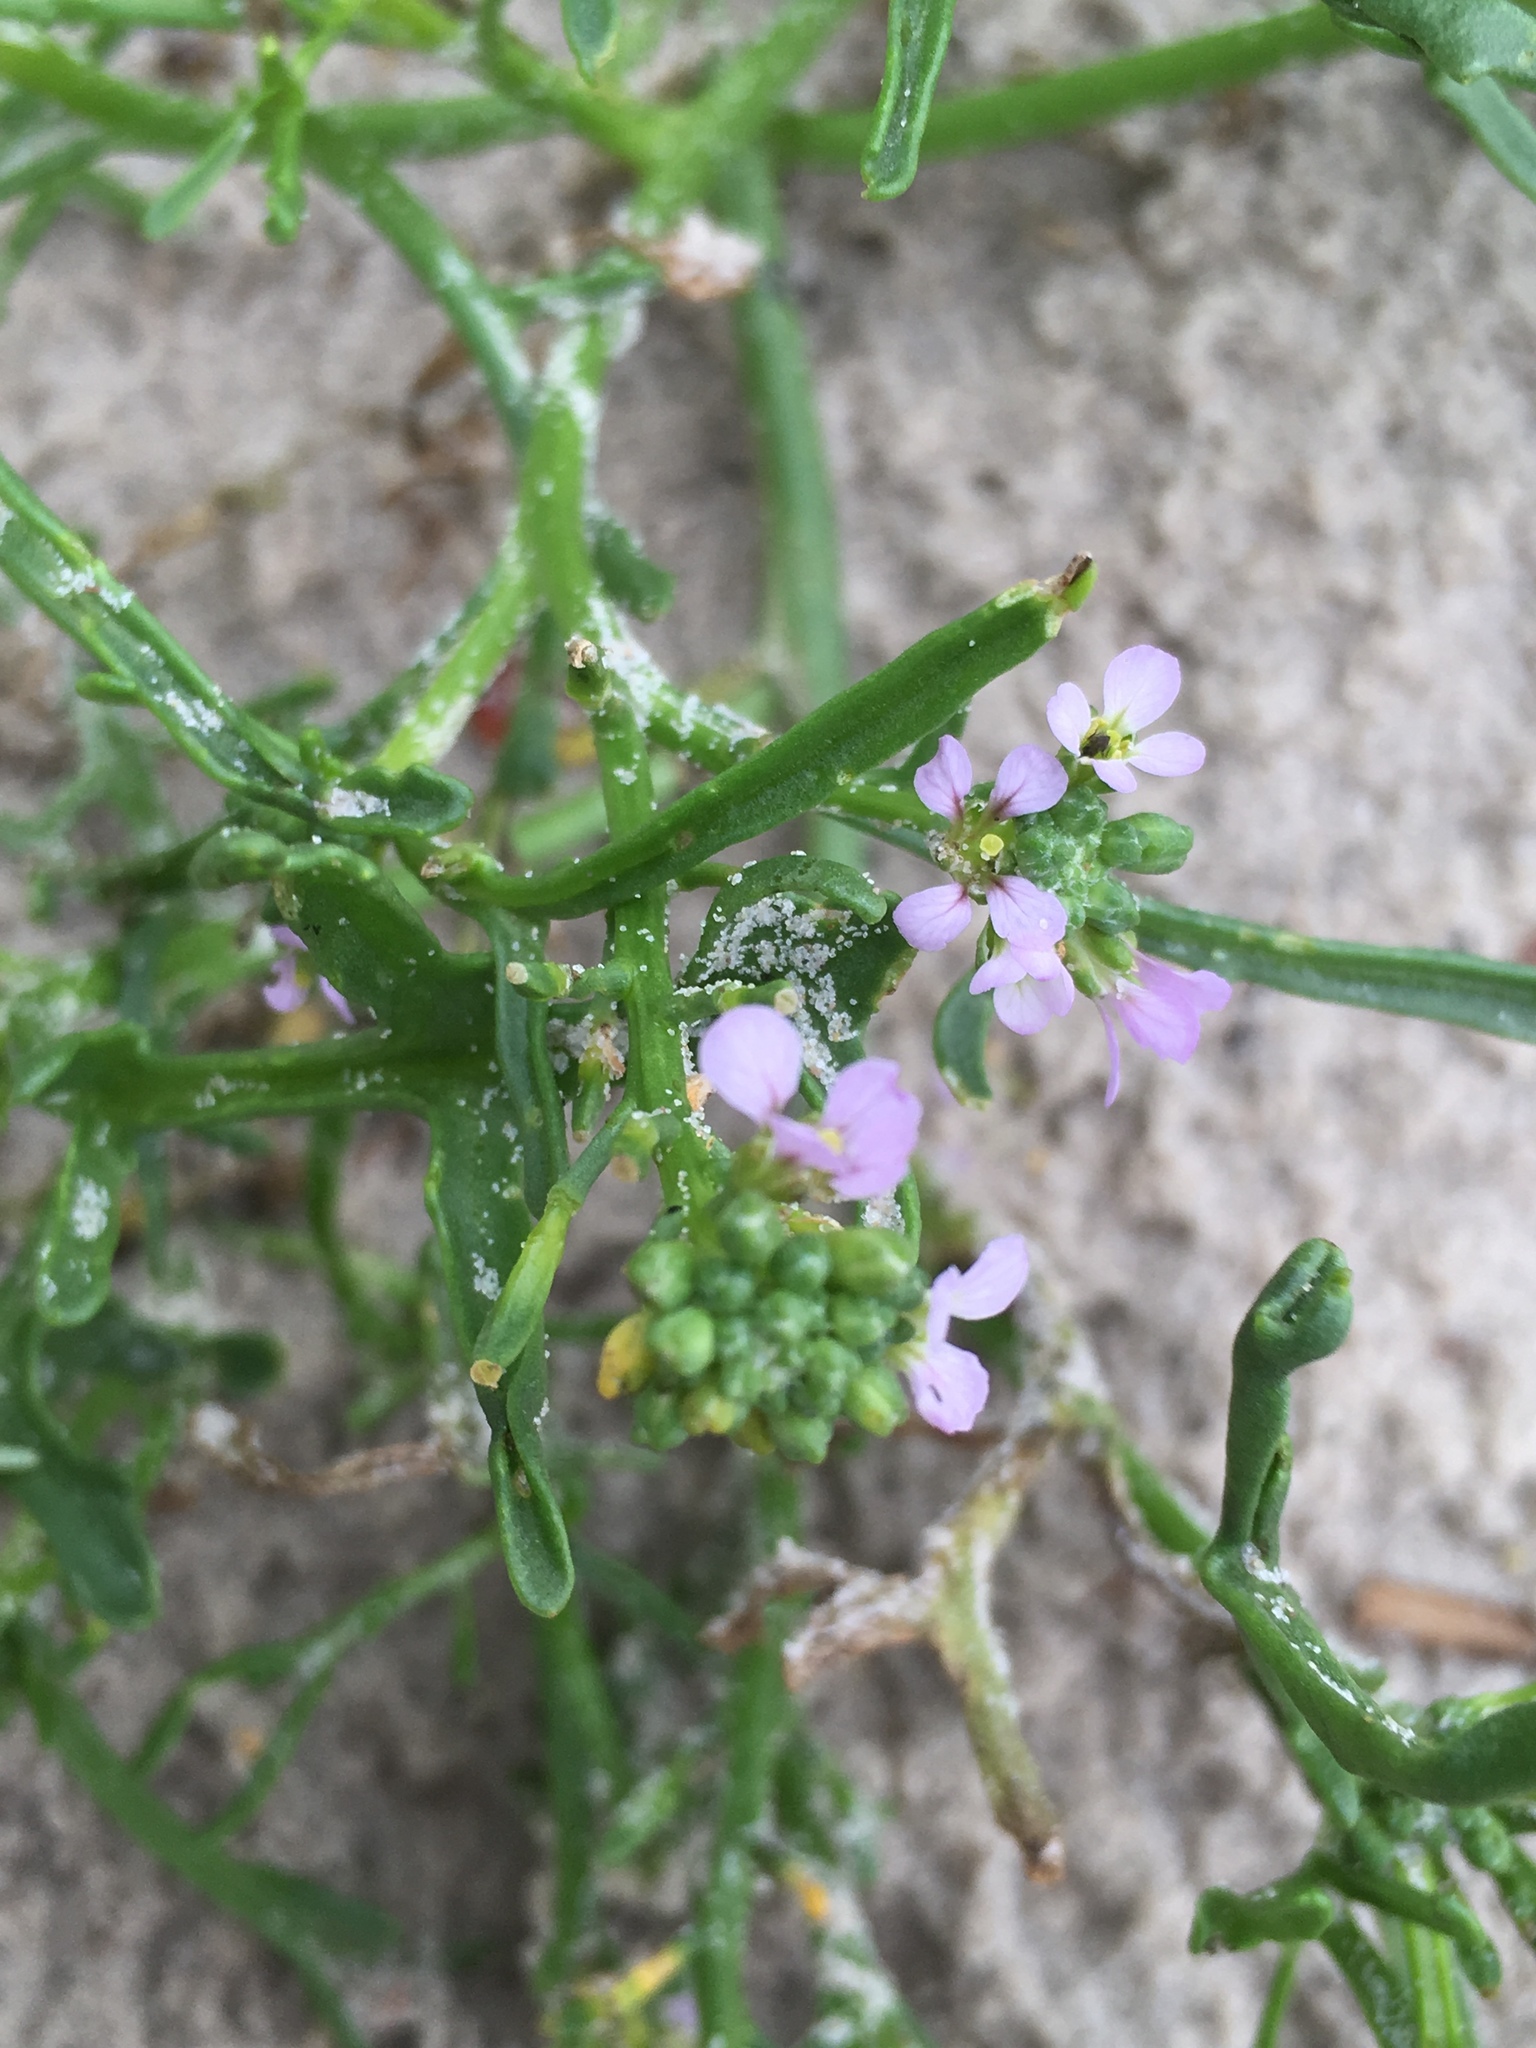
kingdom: Plantae
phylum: Tracheophyta
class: Magnoliopsida
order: Brassicales
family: Brassicaceae
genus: Cakile
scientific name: Cakile maritima
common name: Sea rocket
